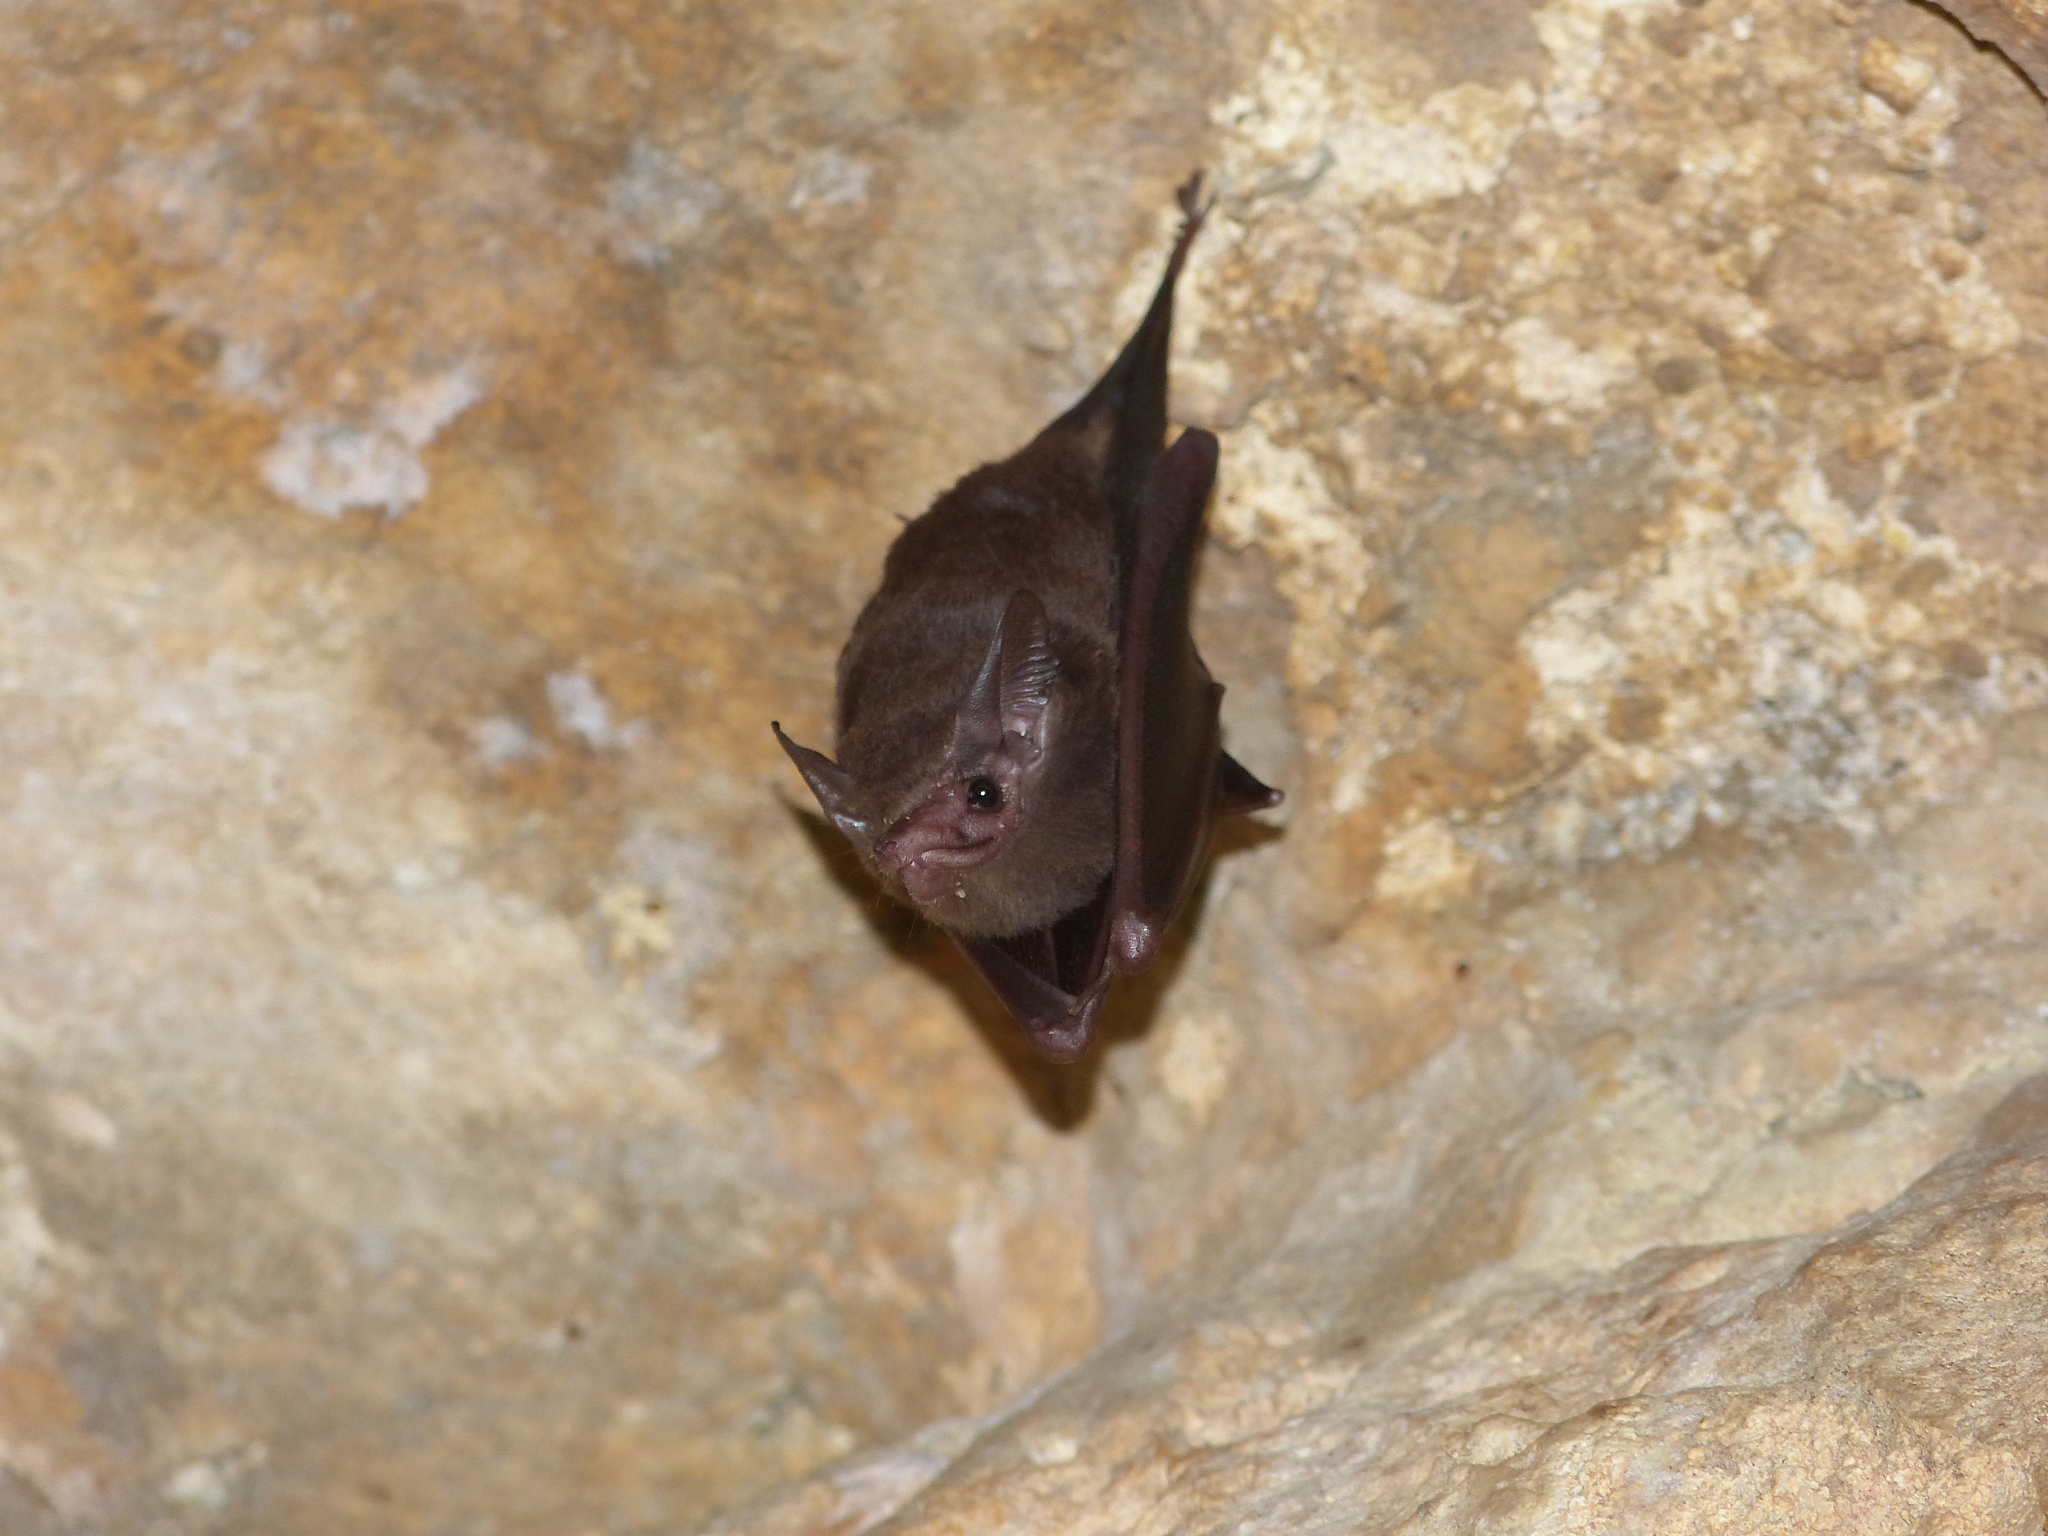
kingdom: Animalia
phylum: Chordata
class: Mammalia
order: Chiroptera
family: Emballonuridae
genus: Peropteryx
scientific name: Peropteryx macrotis
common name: Lesser dog-like bat
